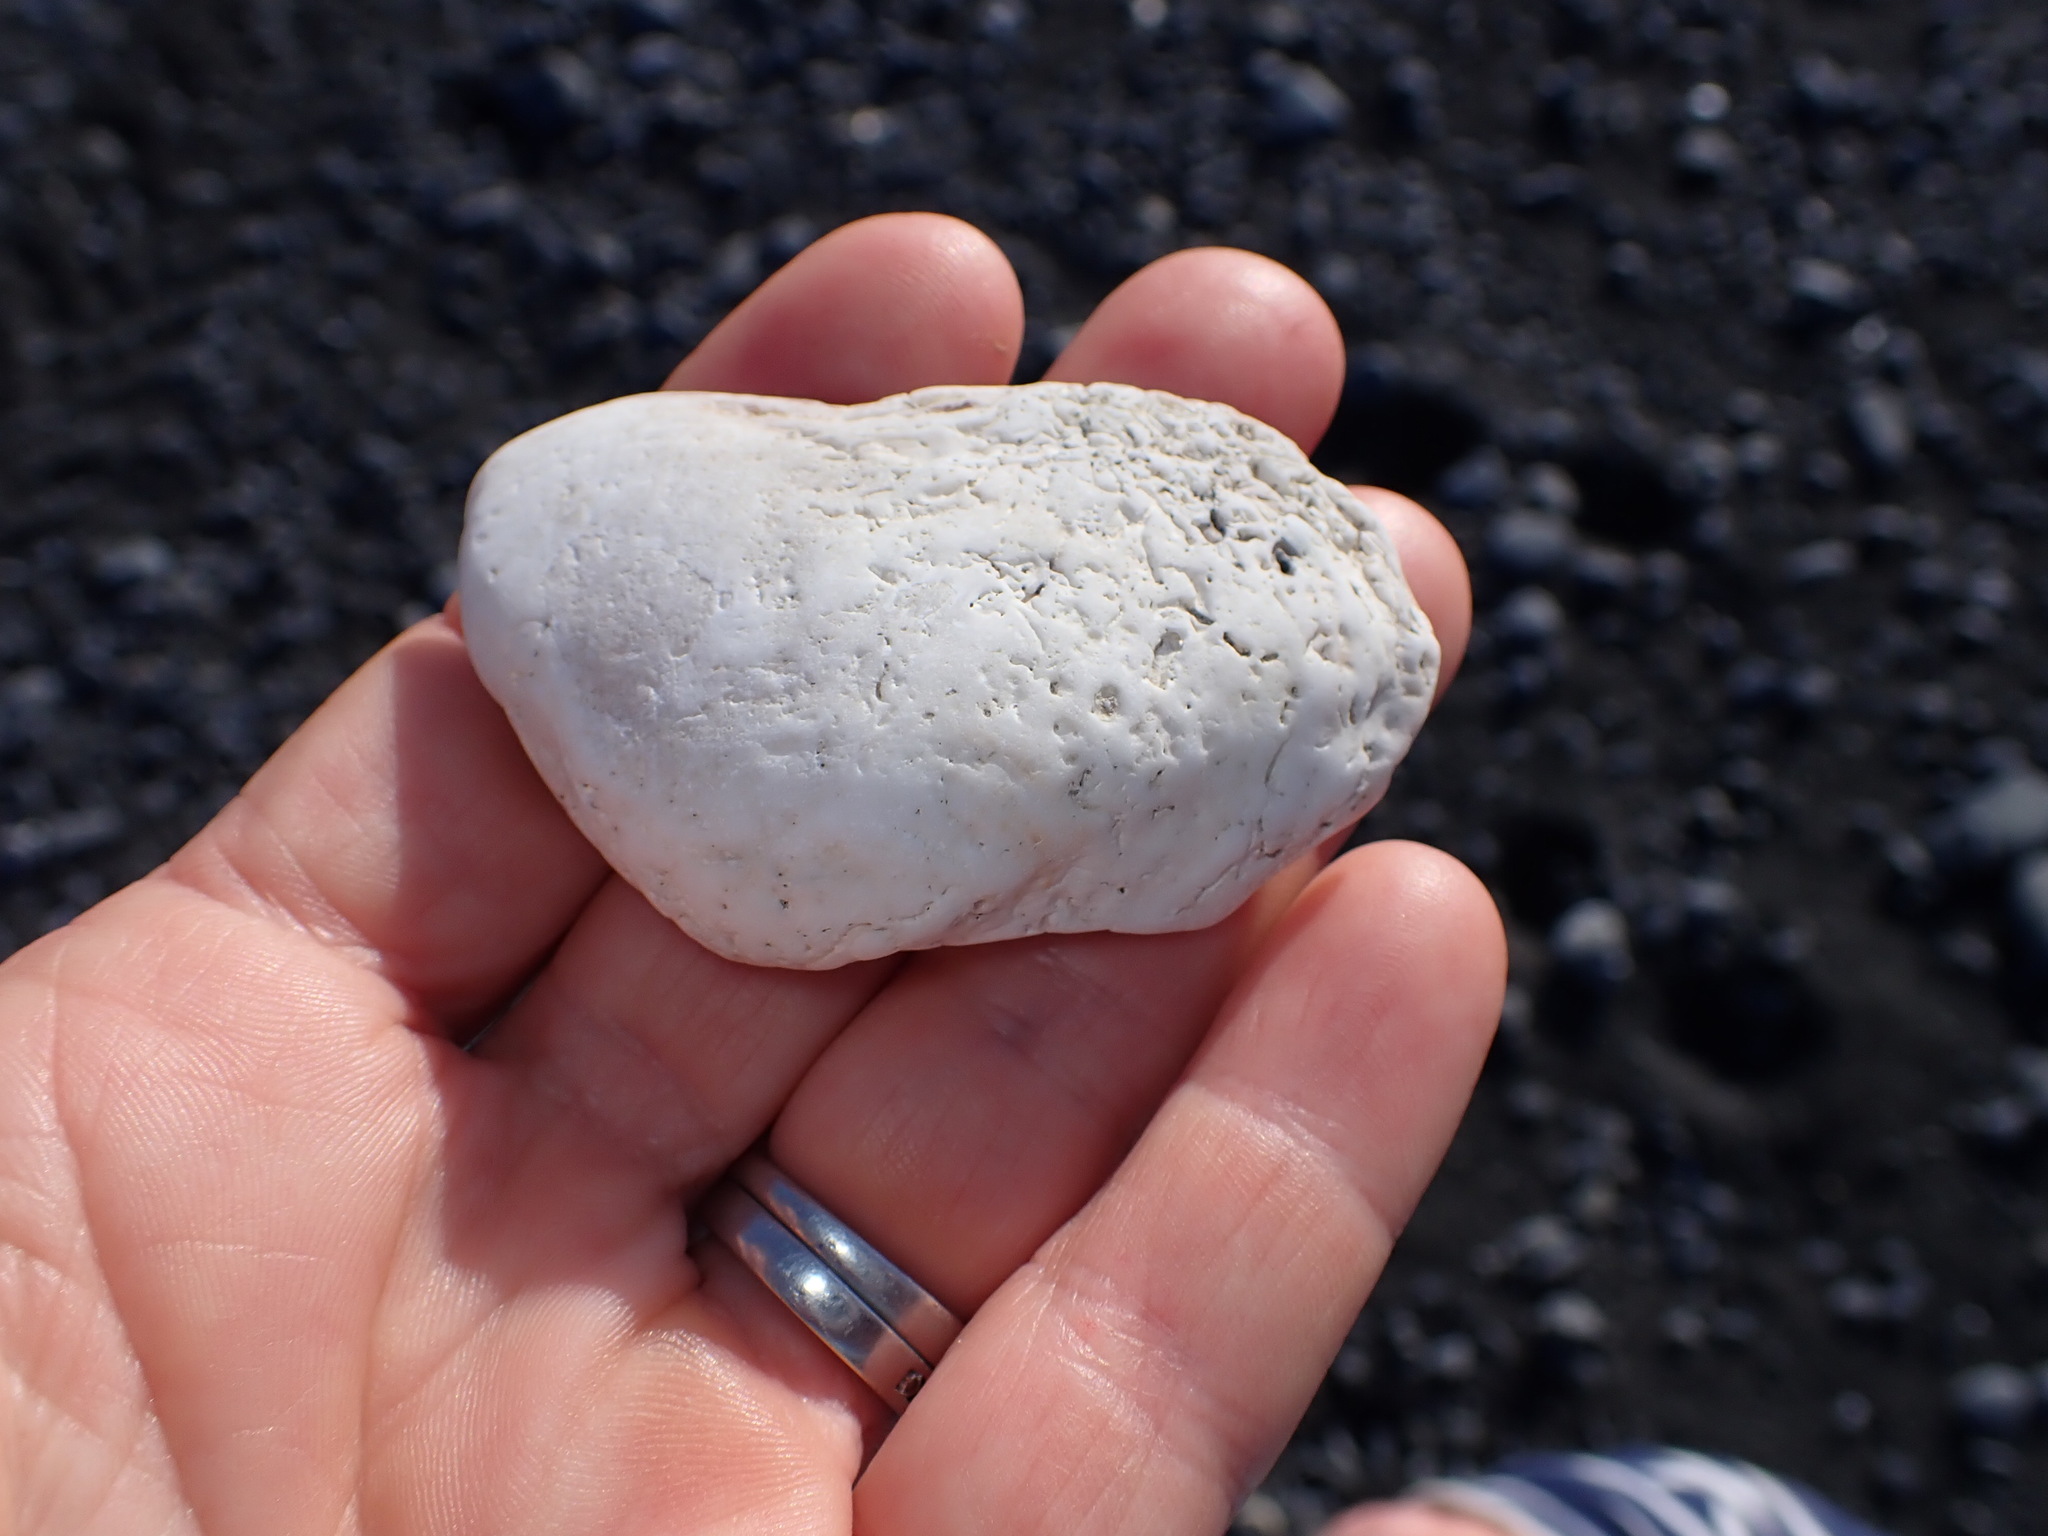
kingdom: Animalia
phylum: Mollusca
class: Bivalvia
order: Arcida
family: Arcidae
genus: Barbatia
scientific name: Barbatia novaezealandiae
